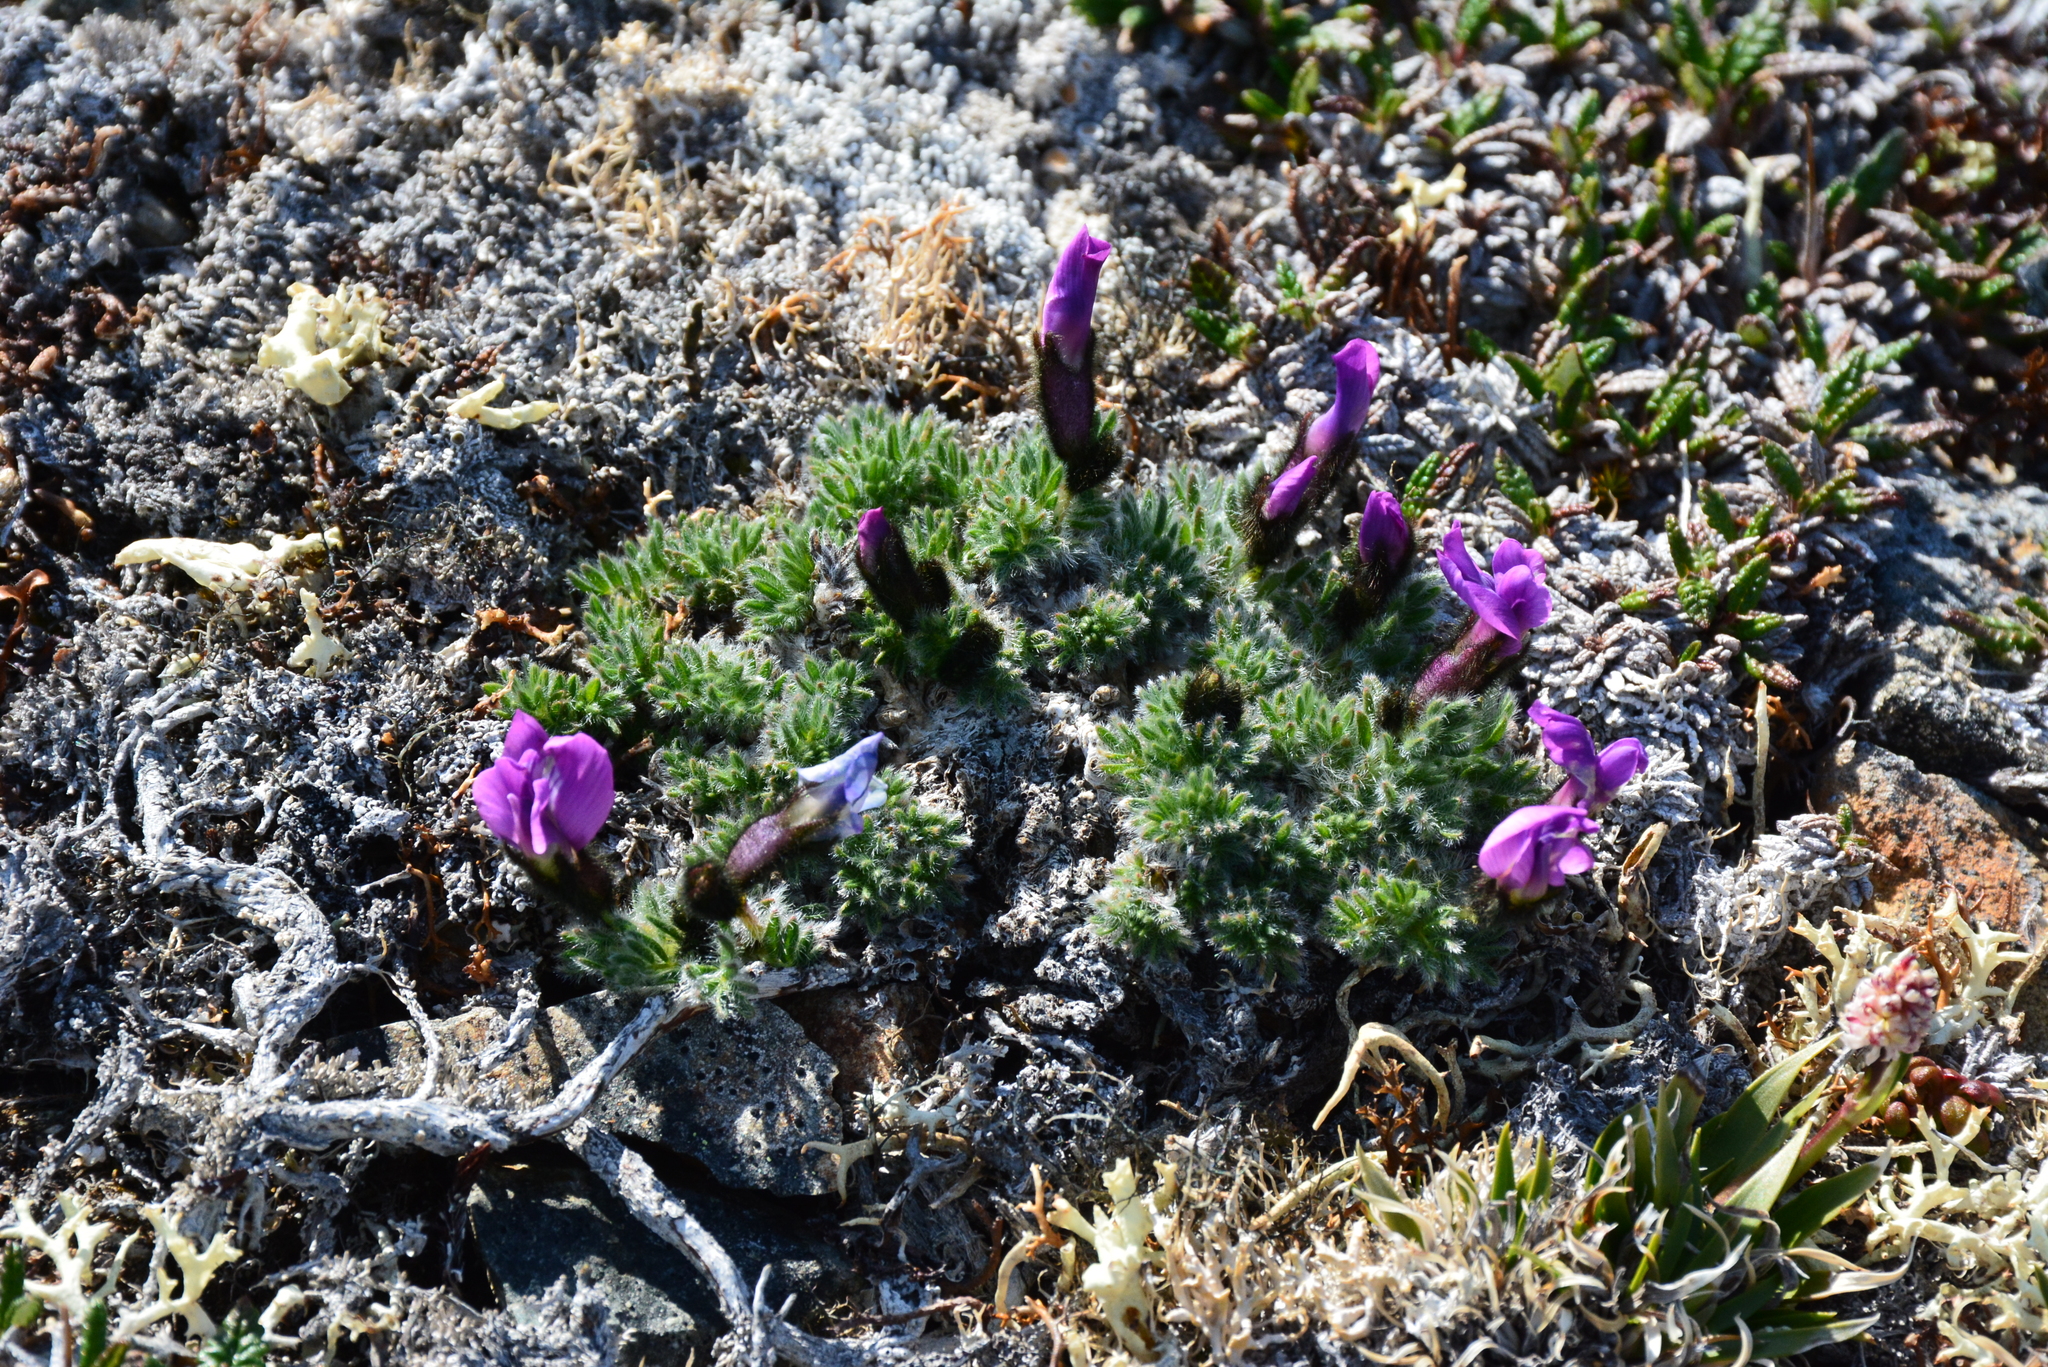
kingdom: Plantae
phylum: Tracheophyta
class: Magnoliopsida
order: Fabales
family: Fabaceae
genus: Oxytropis
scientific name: Oxytropis czukotica
